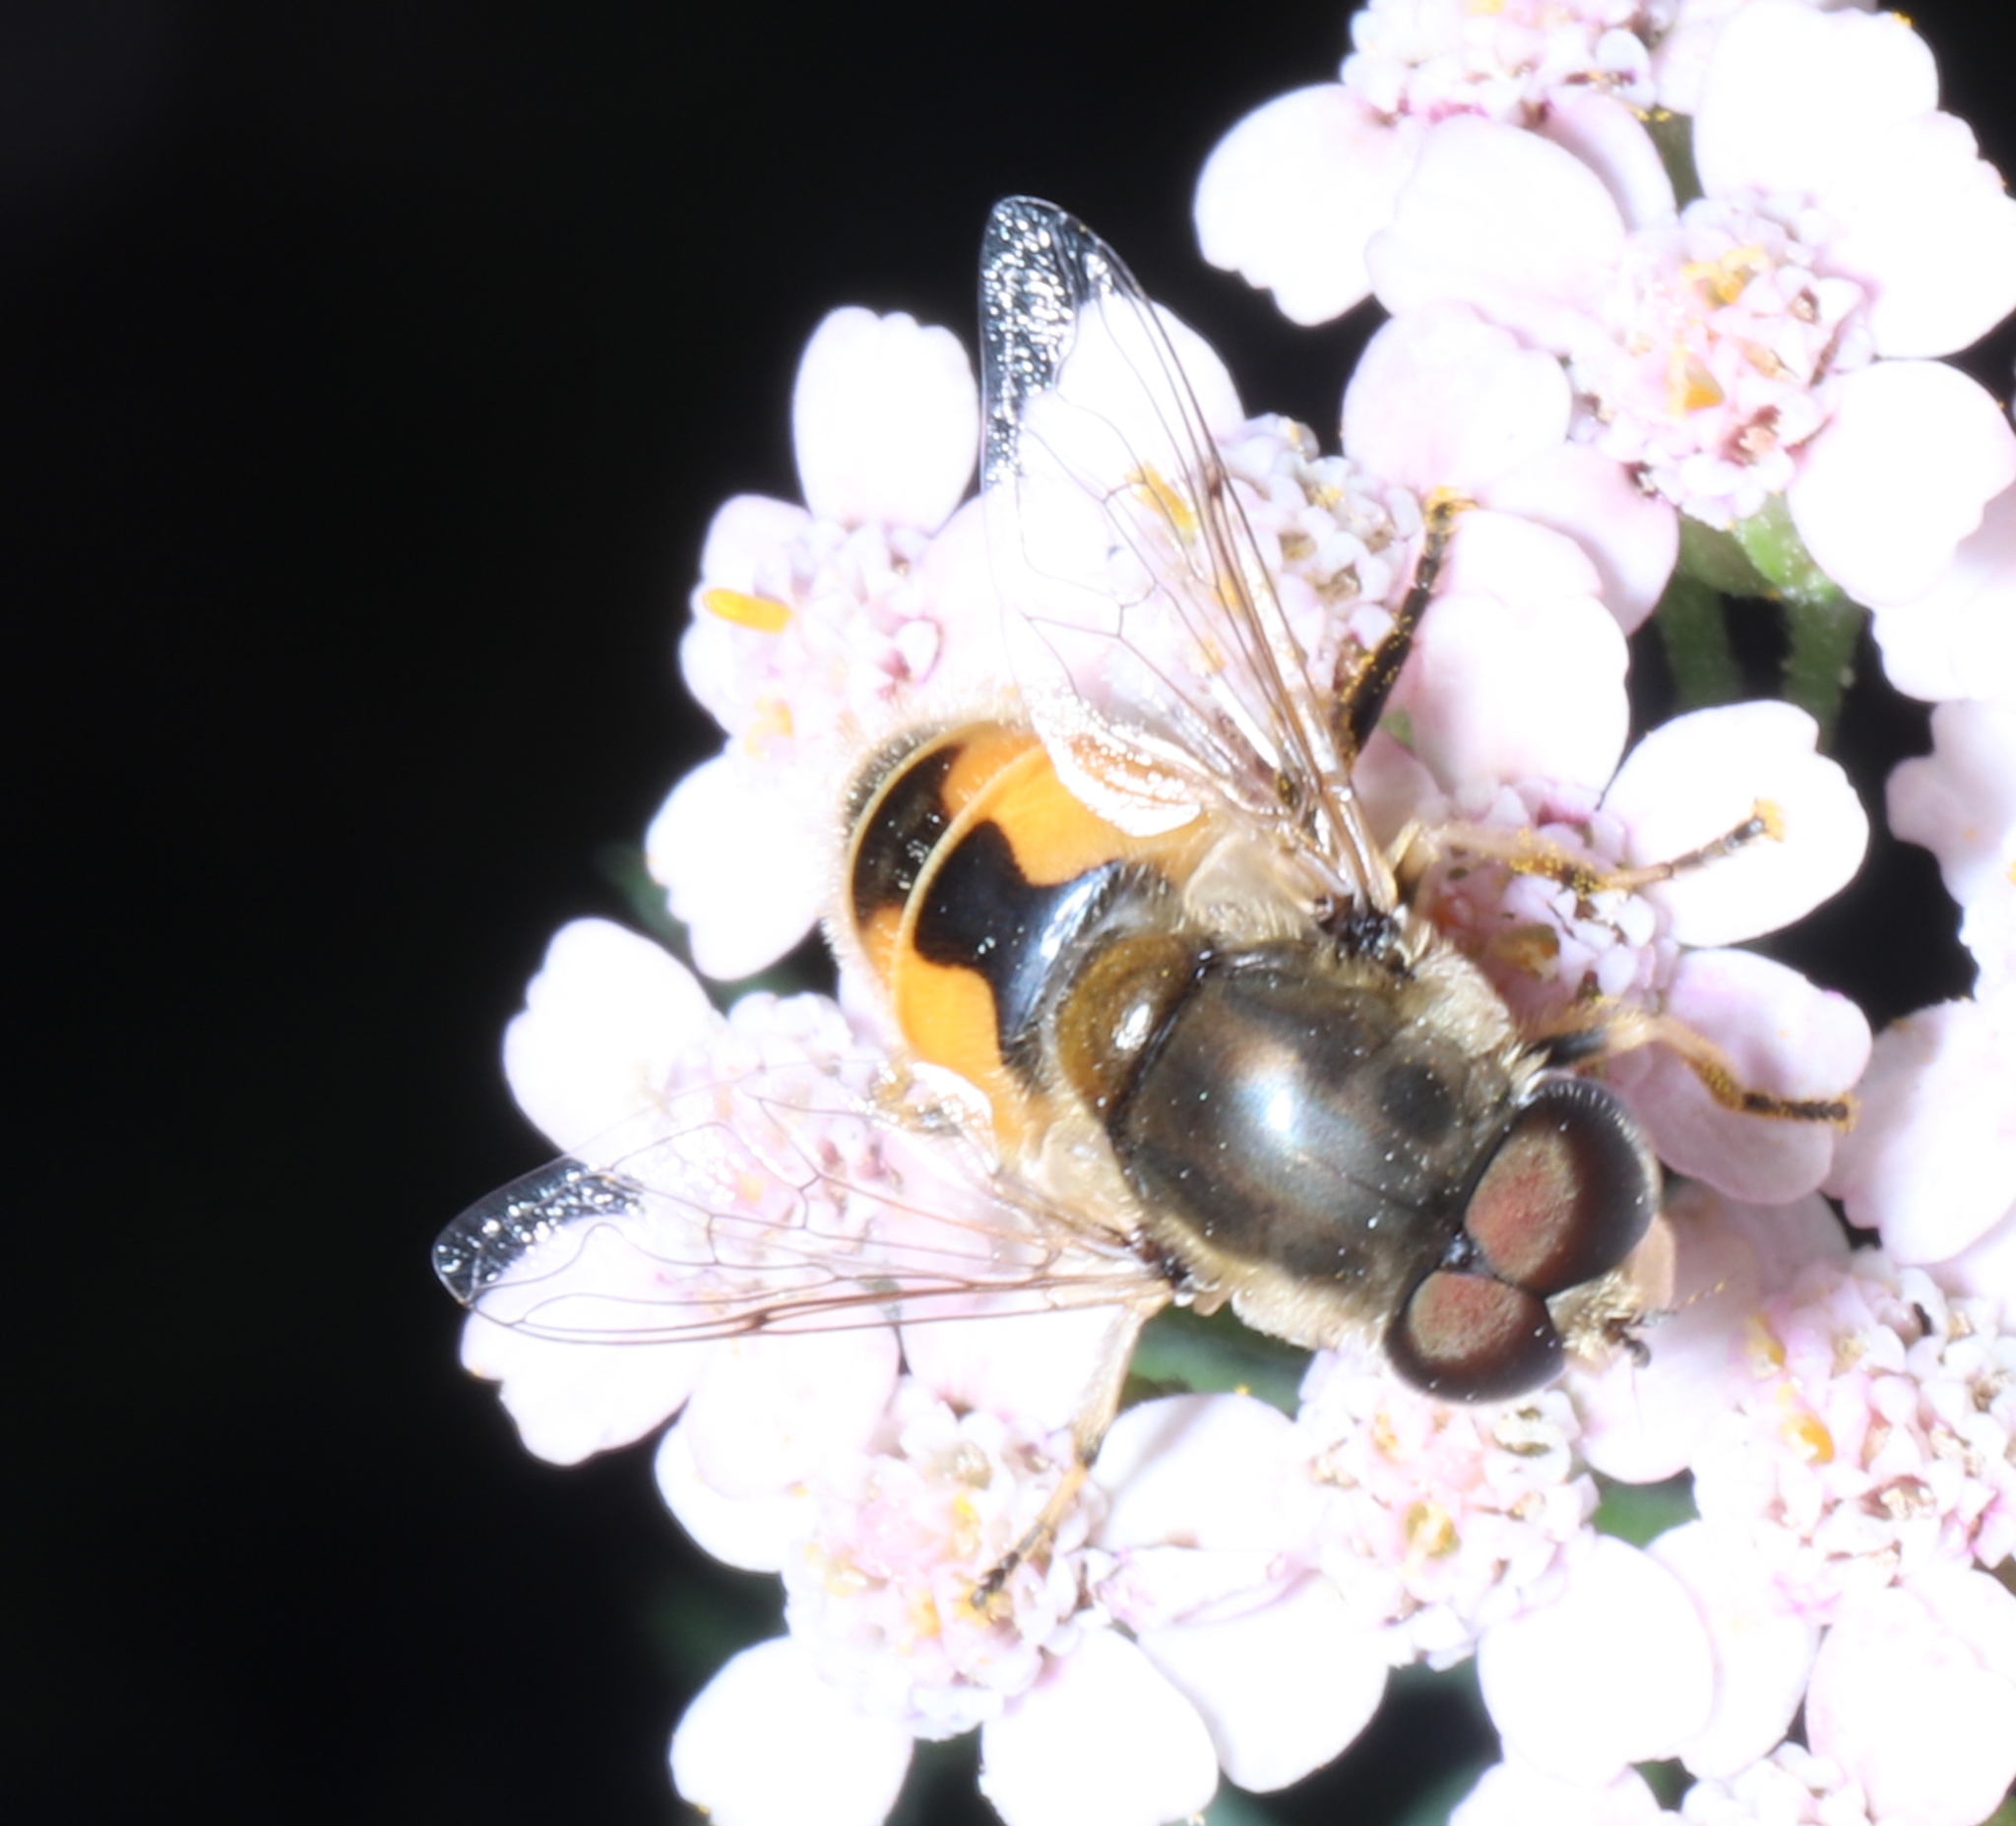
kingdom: Animalia
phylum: Arthropoda
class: Insecta
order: Diptera
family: Syrphidae
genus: Eristalis
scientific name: Eristalis arbustorum
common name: Hover fly
